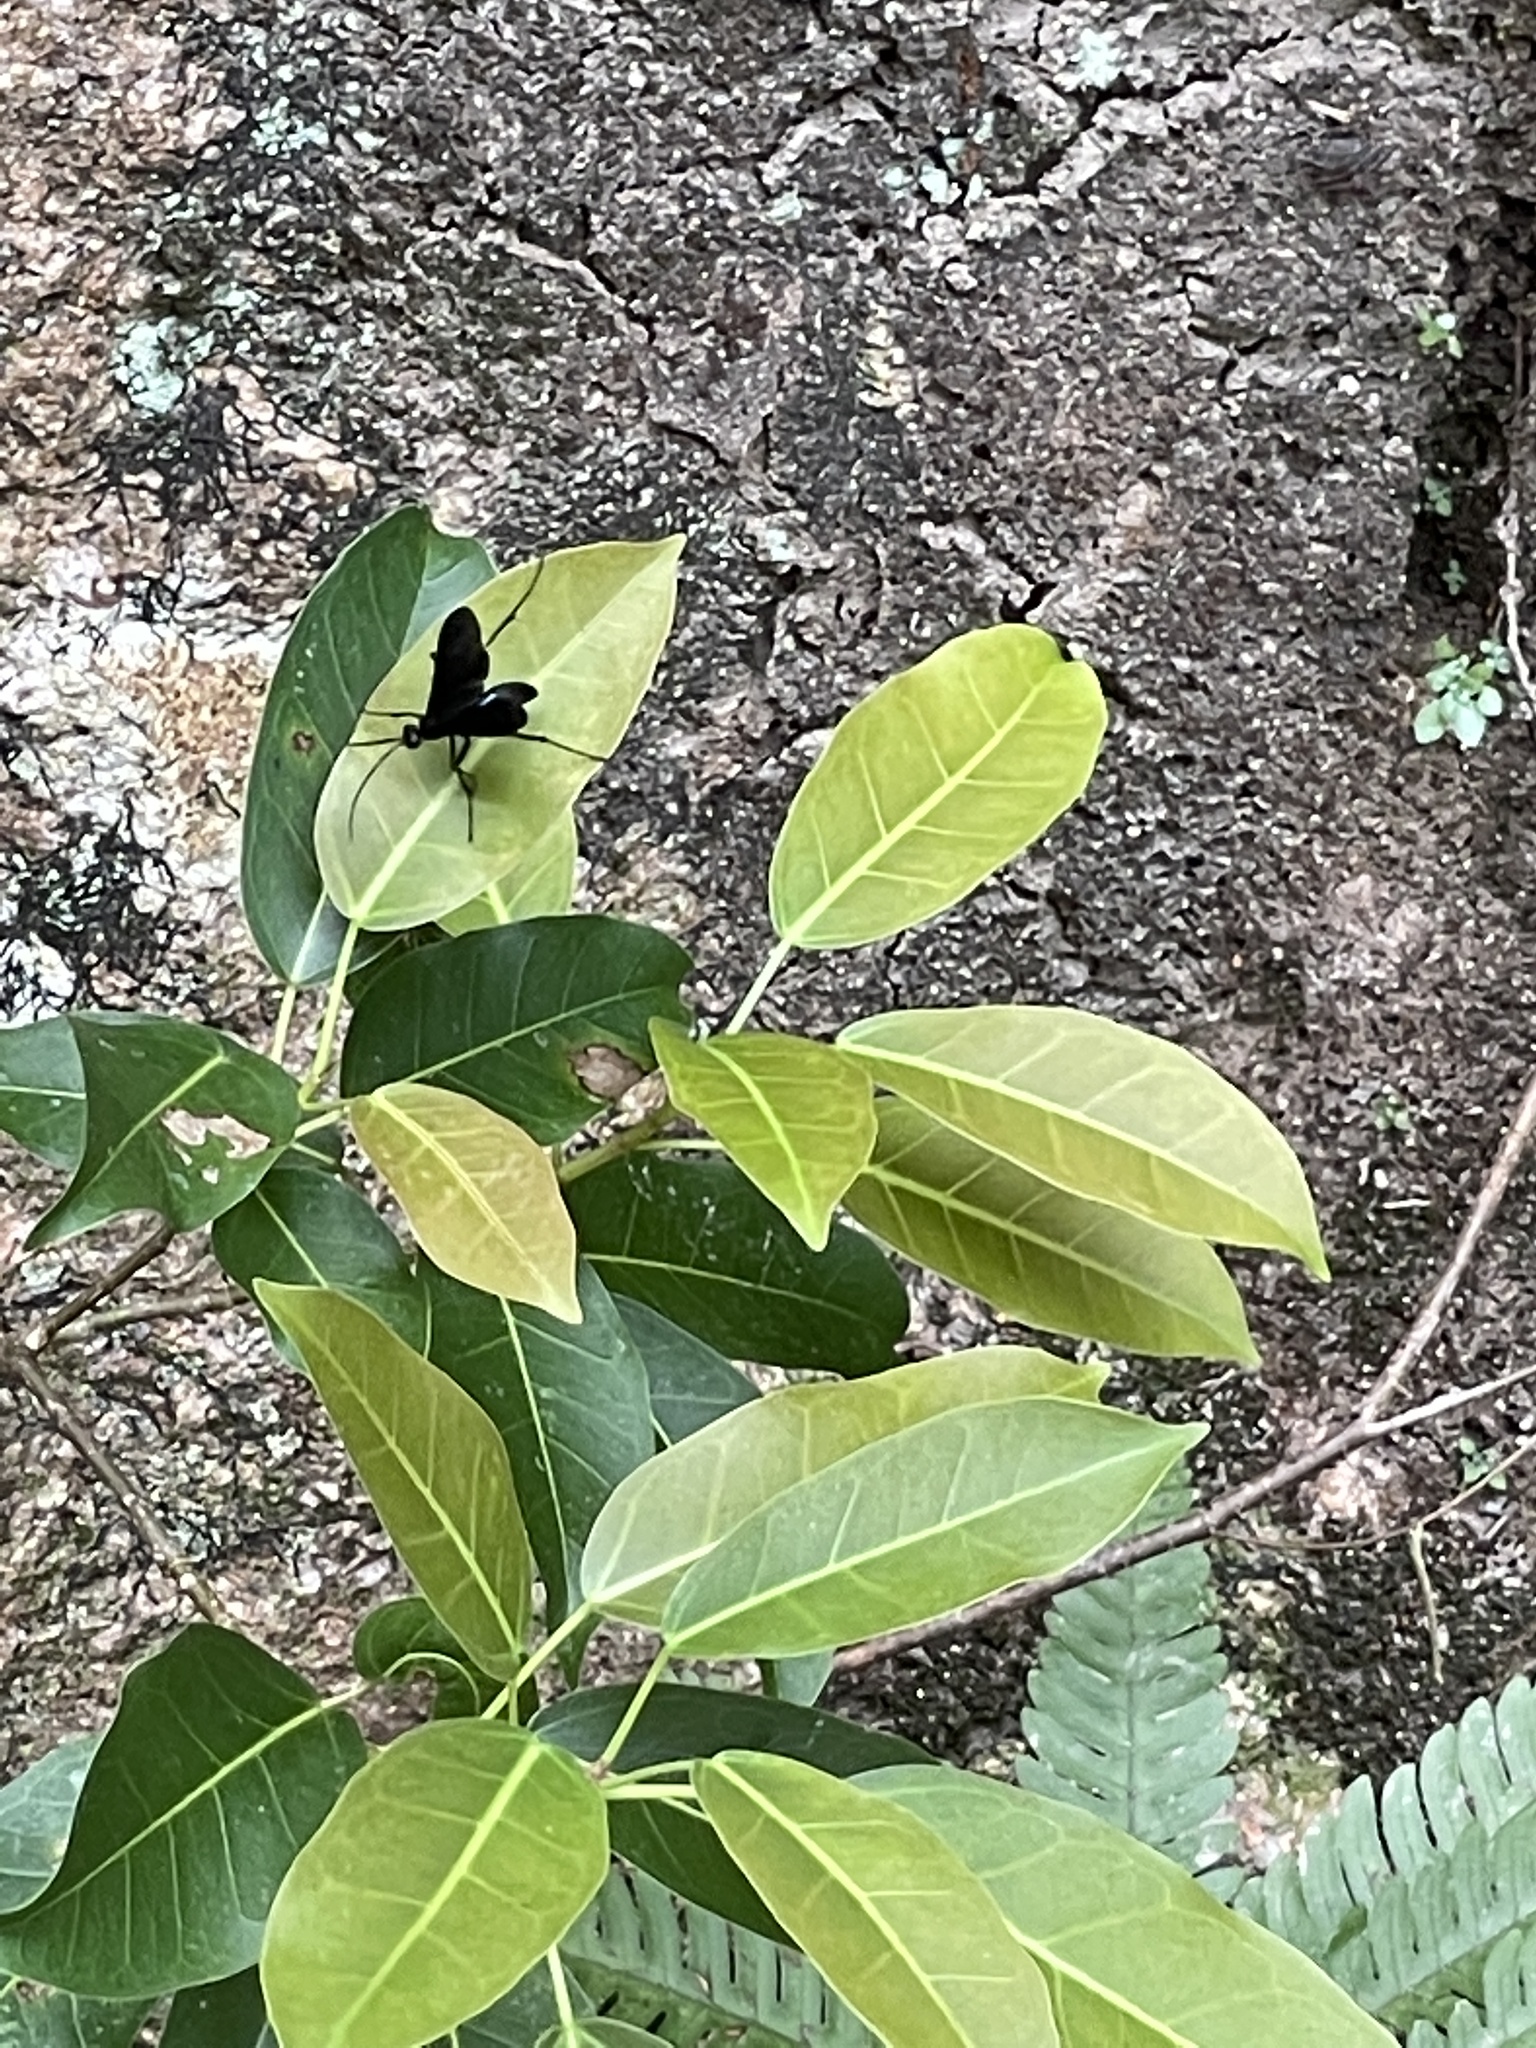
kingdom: Animalia
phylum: Arthropoda
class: Insecta
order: Hymenoptera
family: Pompilidae
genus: Cyphononyx
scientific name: Cyphononyx bipartitus
